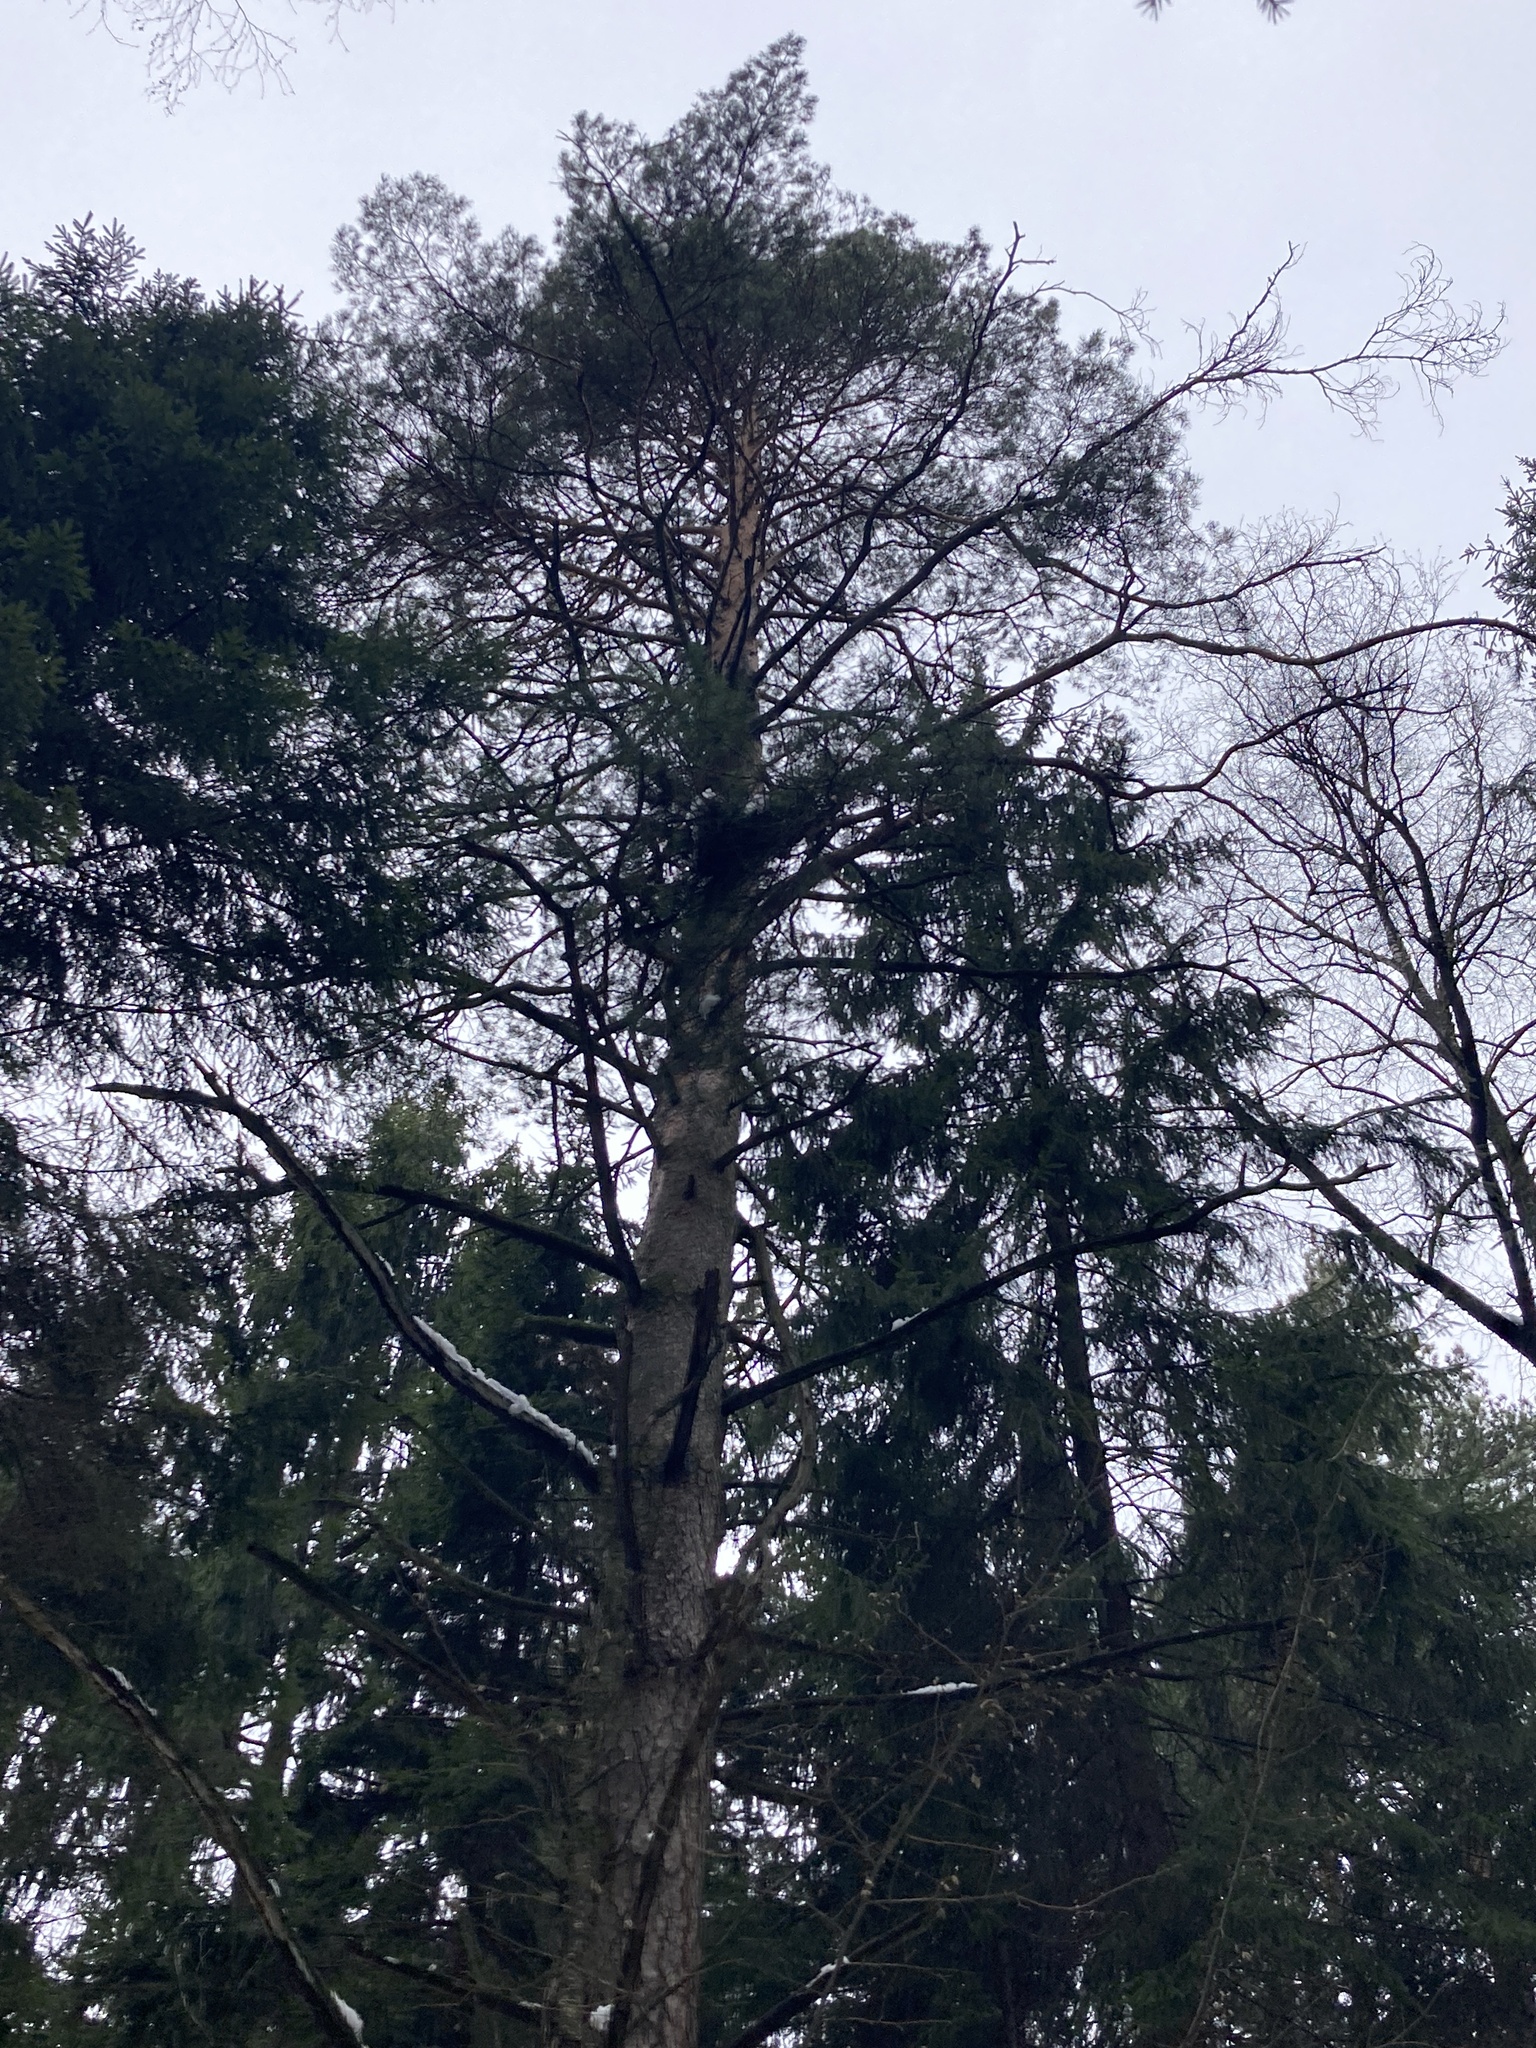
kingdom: Plantae
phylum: Tracheophyta
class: Pinopsida
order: Pinales
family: Pinaceae
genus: Pinus
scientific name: Pinus sylvestris
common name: Scots pine
